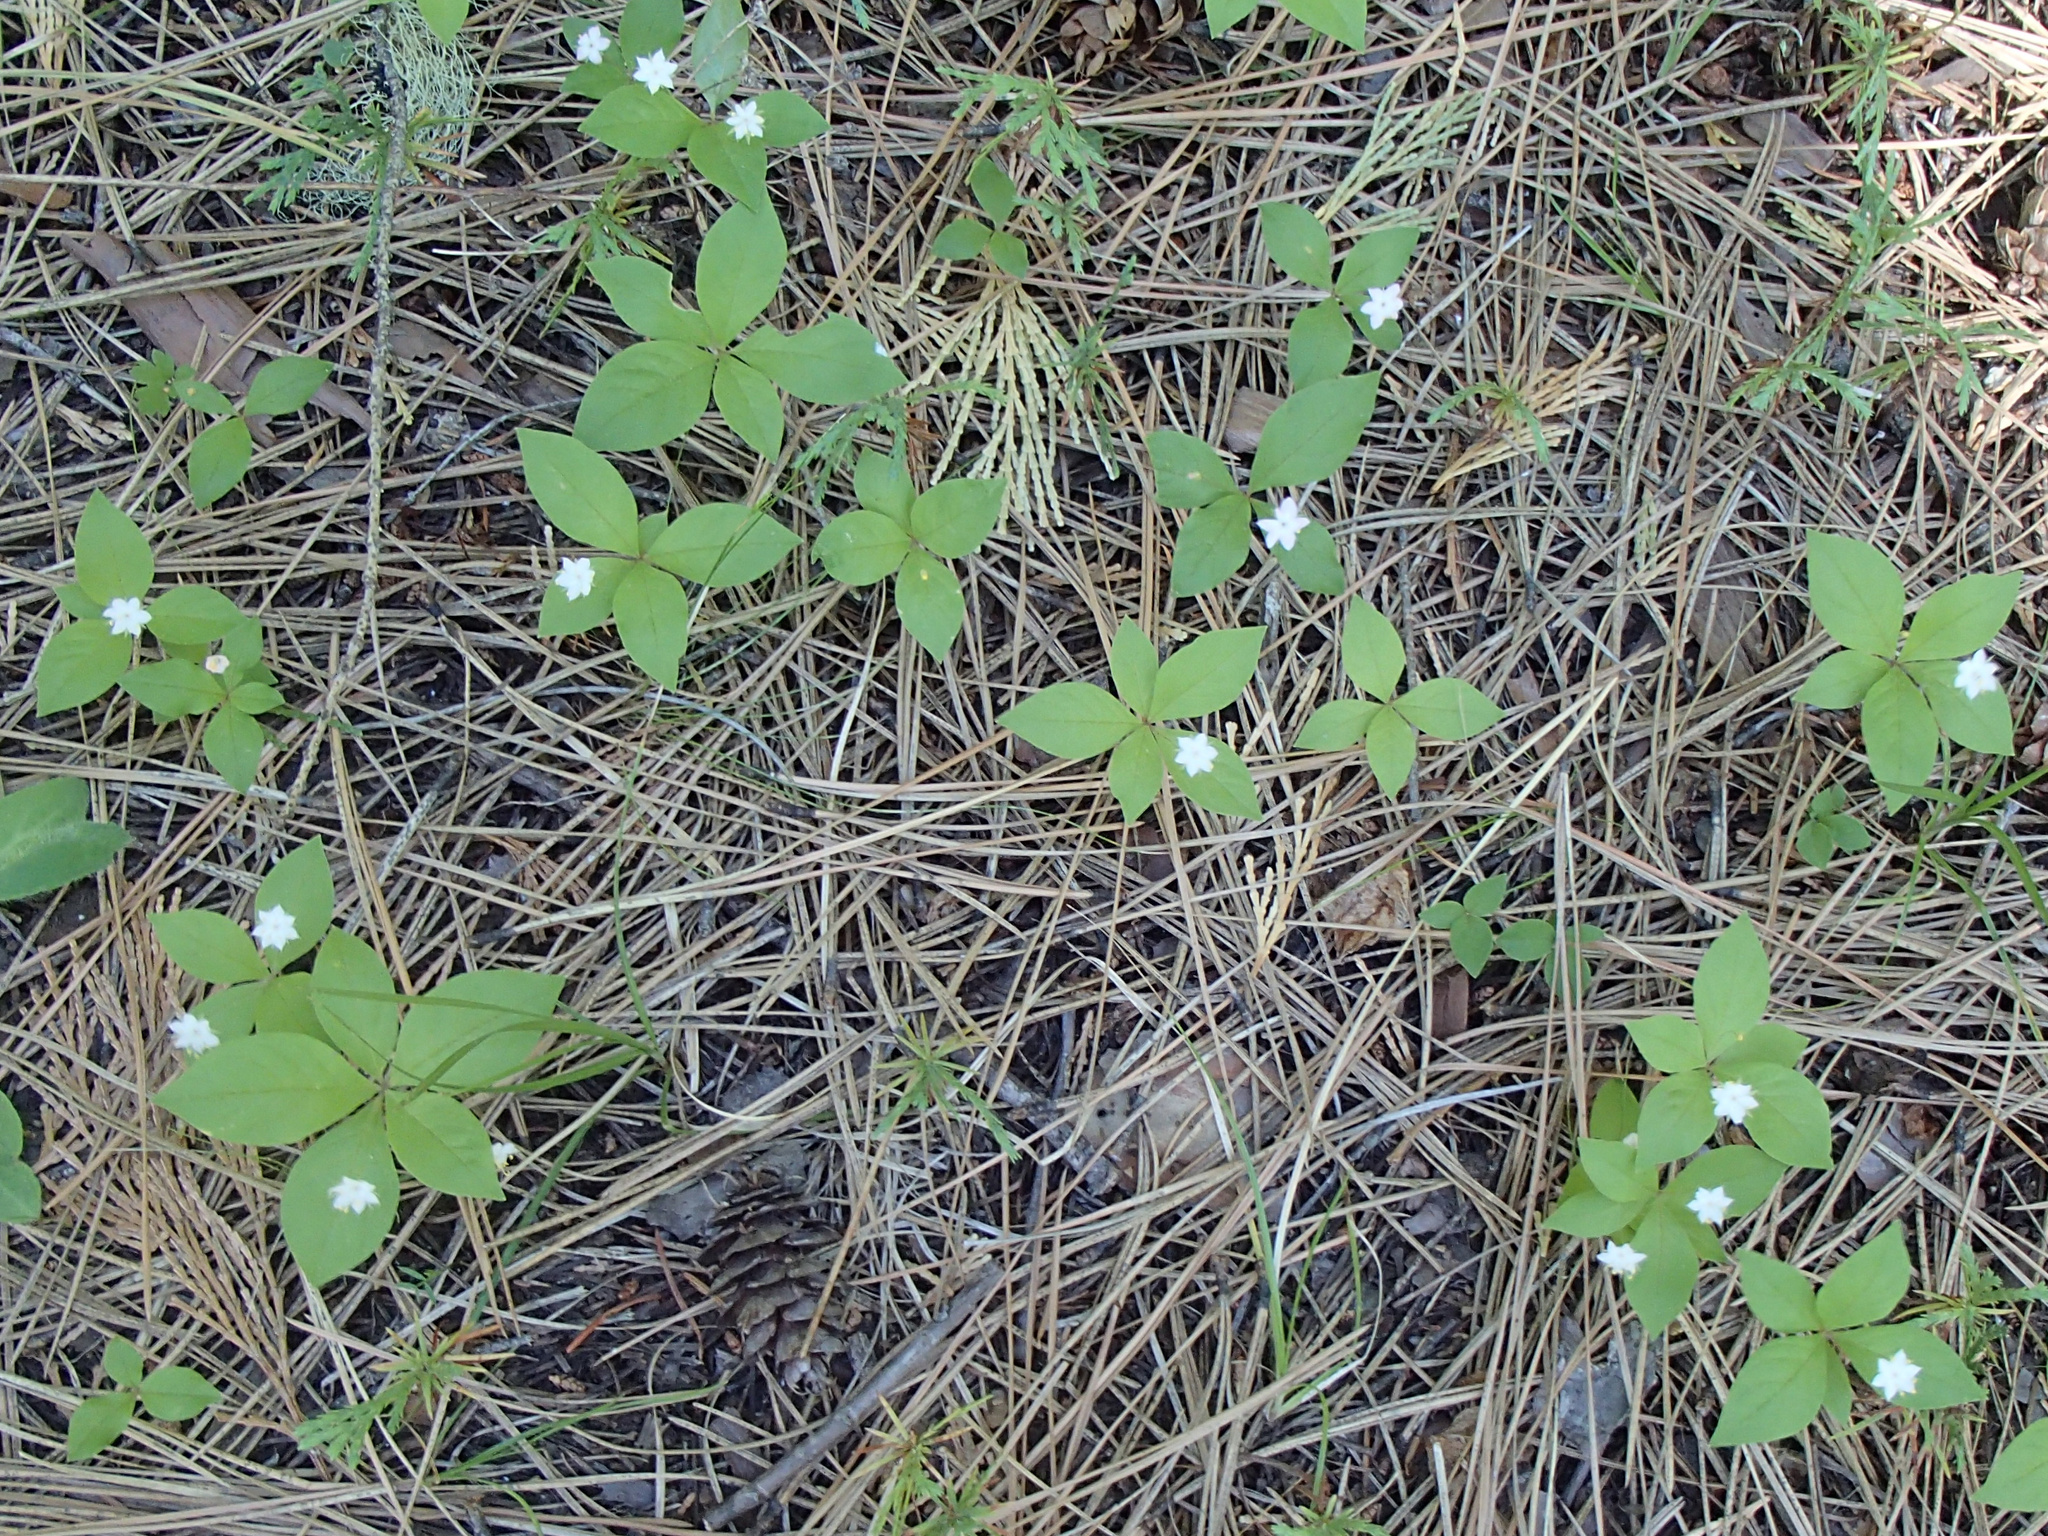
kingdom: Plantae
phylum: Tracheophyta
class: Magnoliopsida
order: Ericales
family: Primulaceae
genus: Lysimachia
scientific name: Lysimachia latifolia
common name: Pacific starflower
